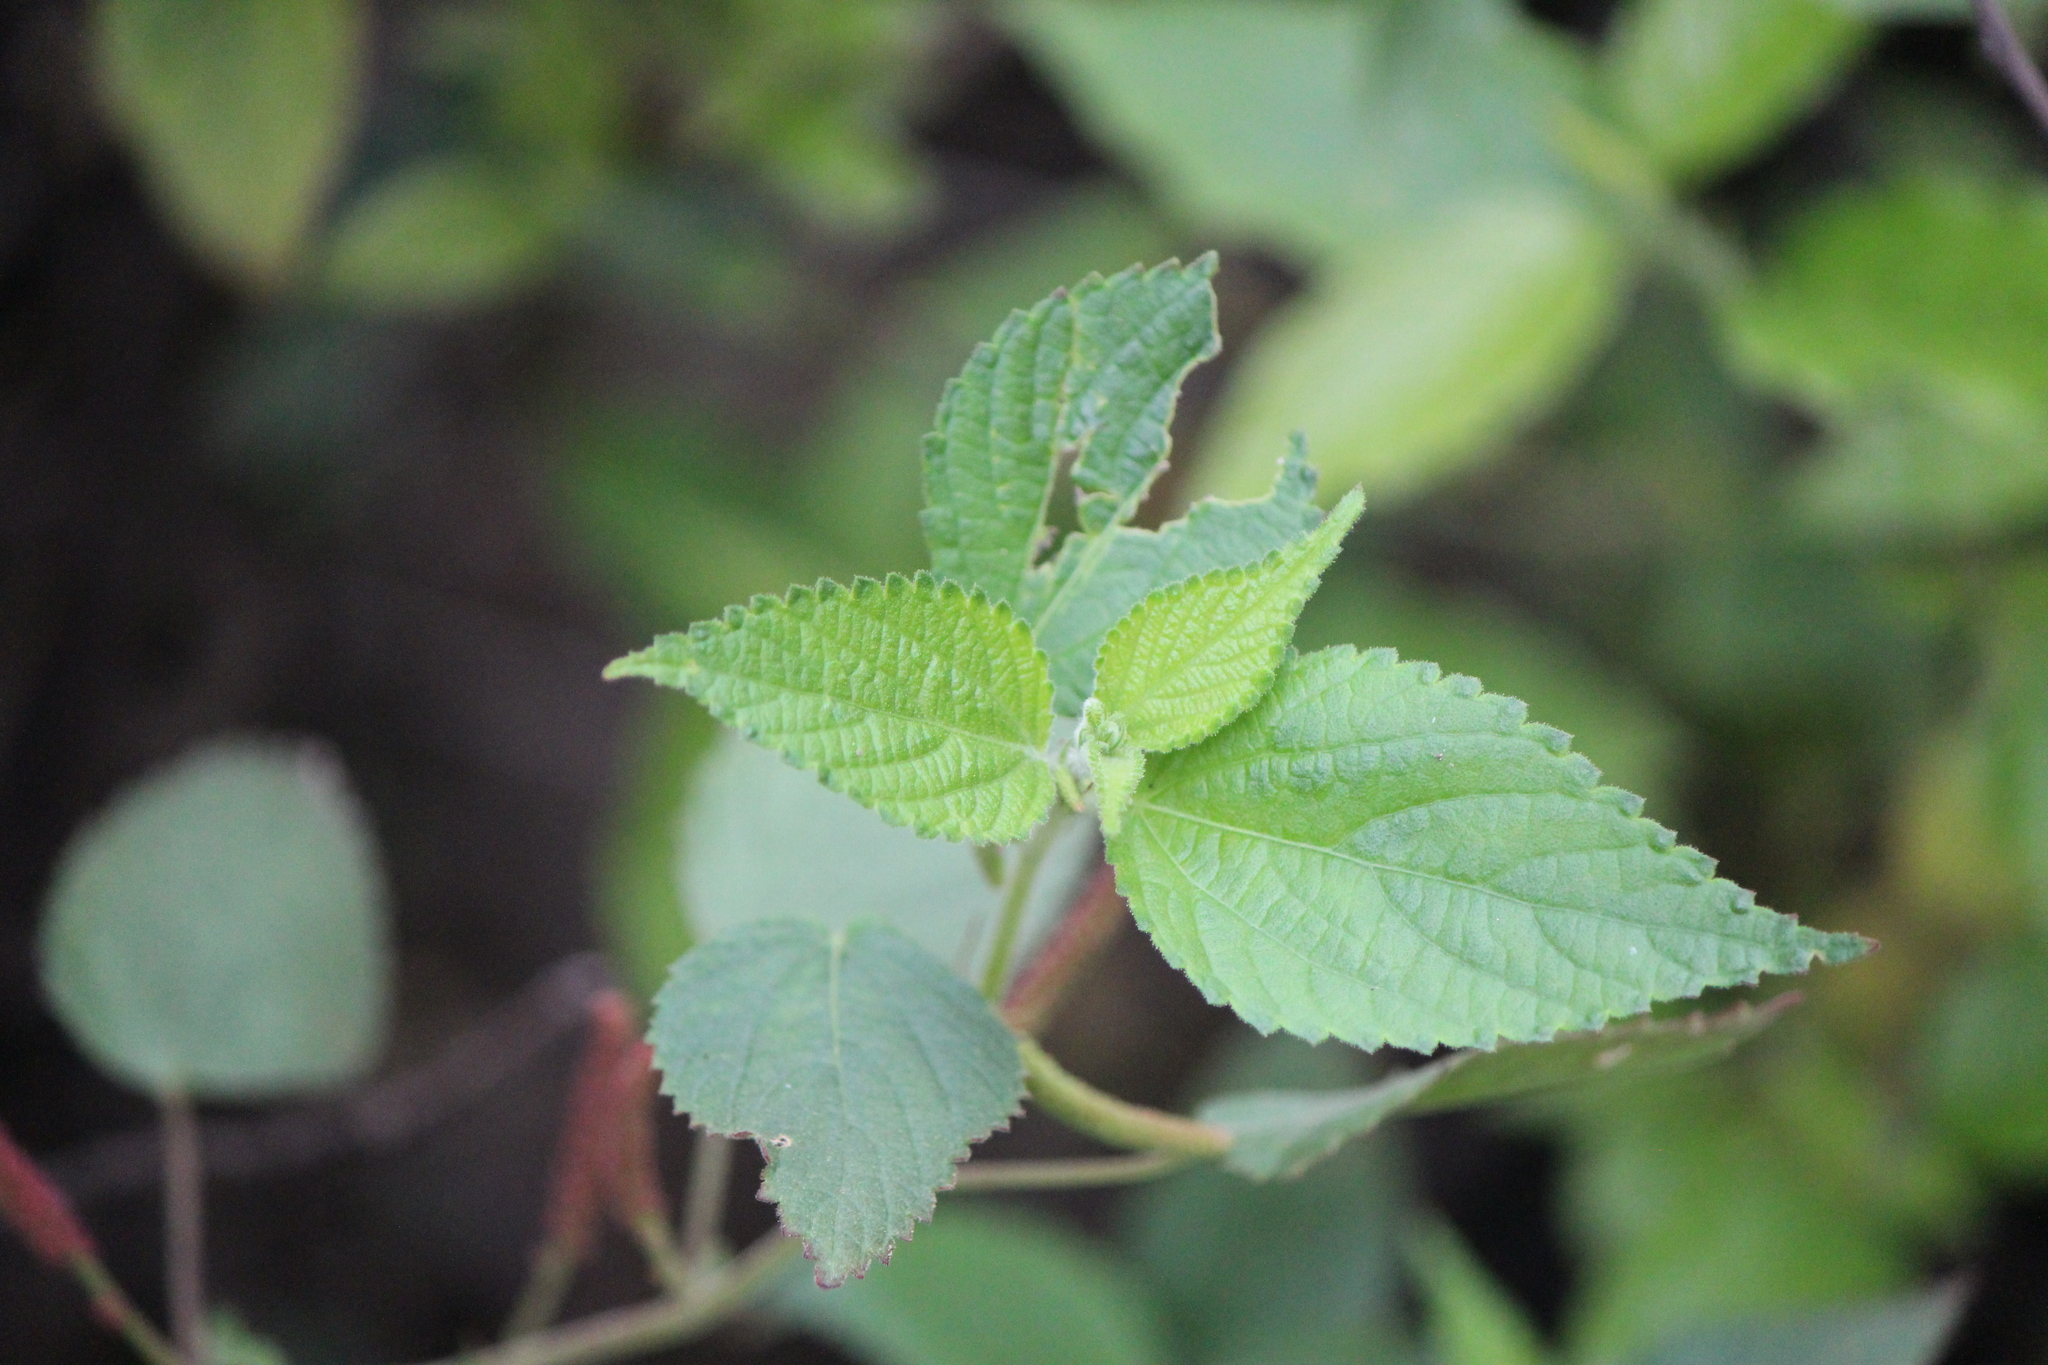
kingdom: Plantae
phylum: Tracheophyta
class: Magnoliopsida
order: Malpighiales
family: Euphorbiaceae
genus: Acalypha
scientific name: Acalypha monostachya
